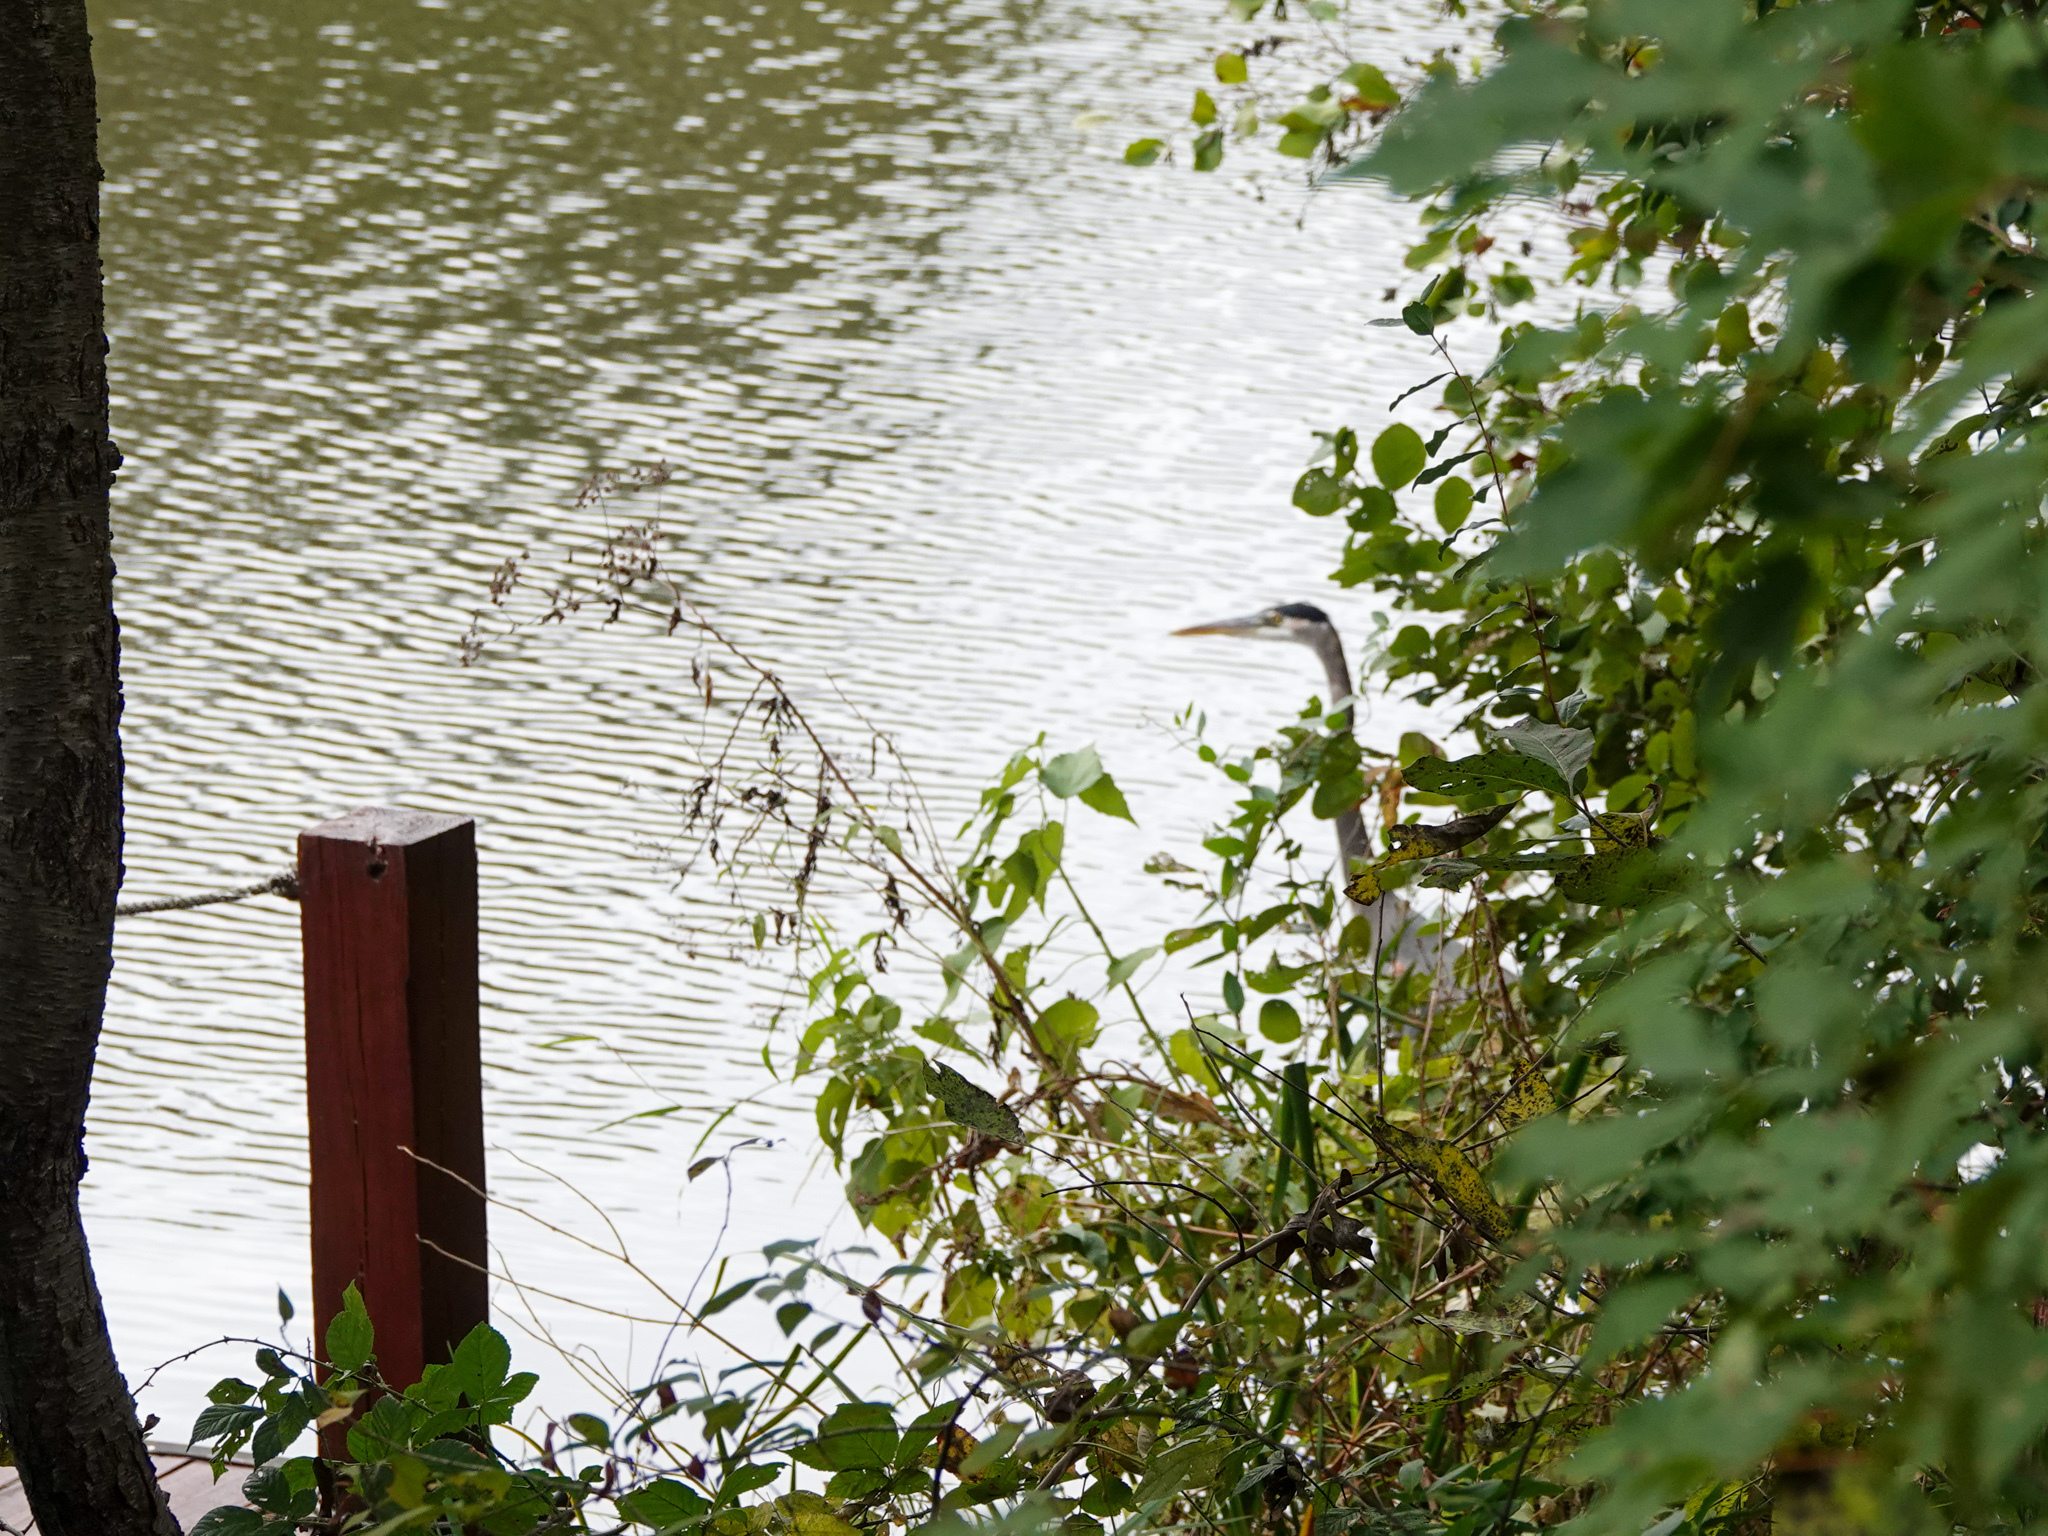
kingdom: Animalia
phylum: Chordata
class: Aves
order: Pelecaniformes
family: Ardeidae
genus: Ardea
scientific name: Ardea herodias
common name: Great blue heron
